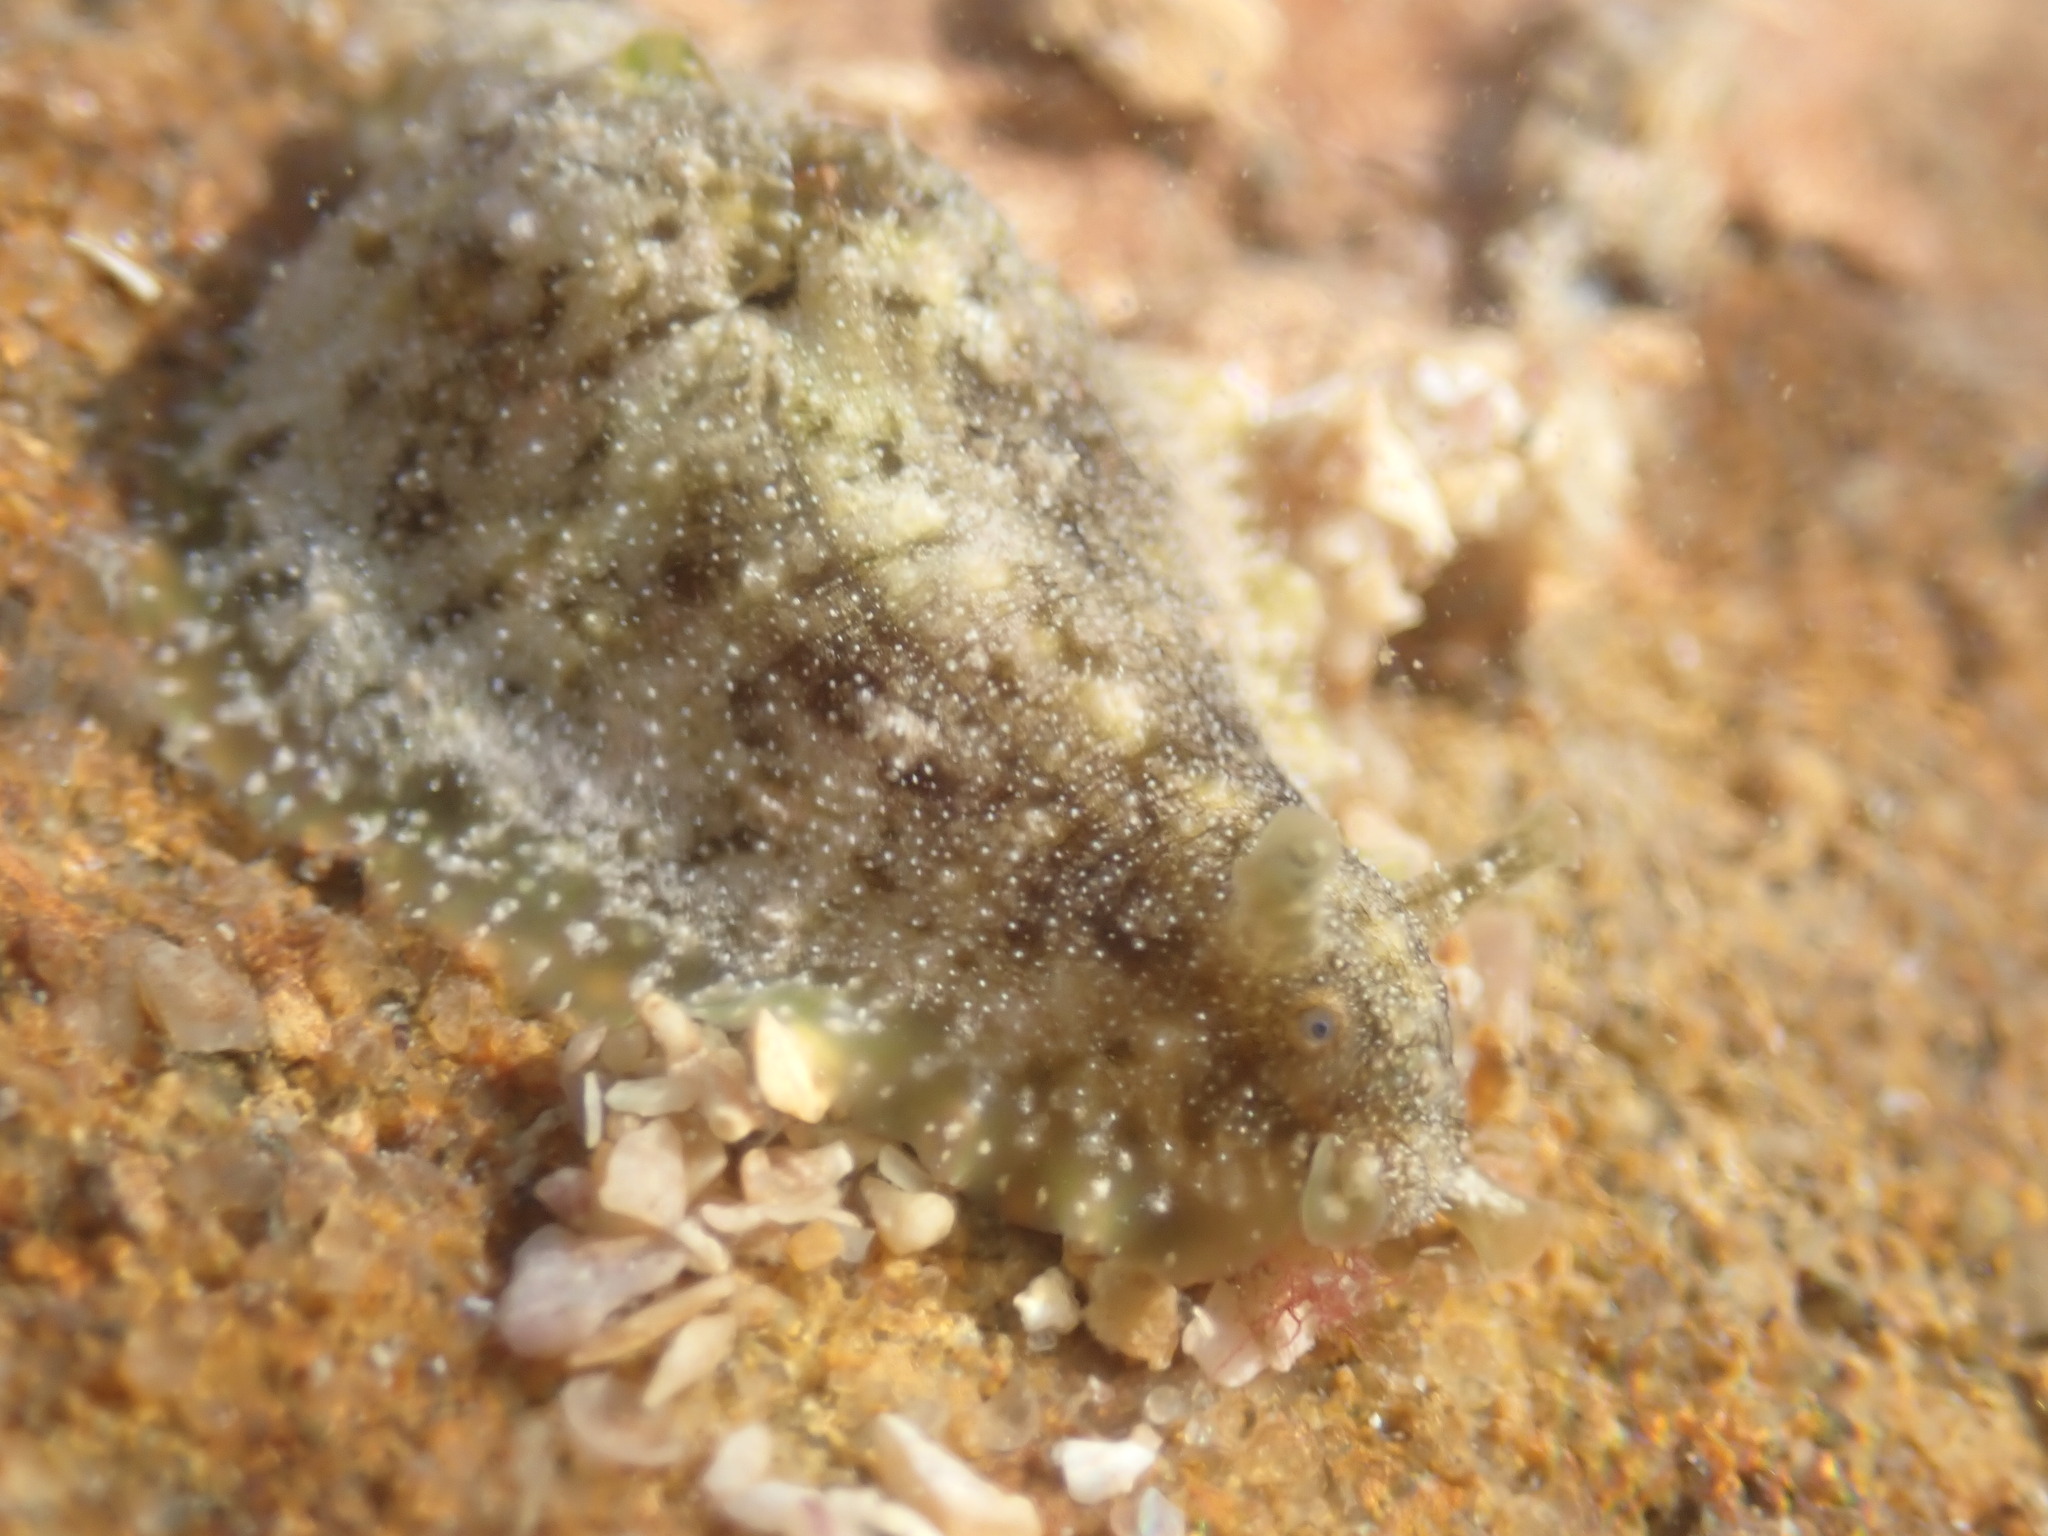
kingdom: Animalia
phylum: Mollusca
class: Gastropoda
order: Aplysiida
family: Aplysiidae
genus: Dolabrifera
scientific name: Dolabrifera dolabrifera
